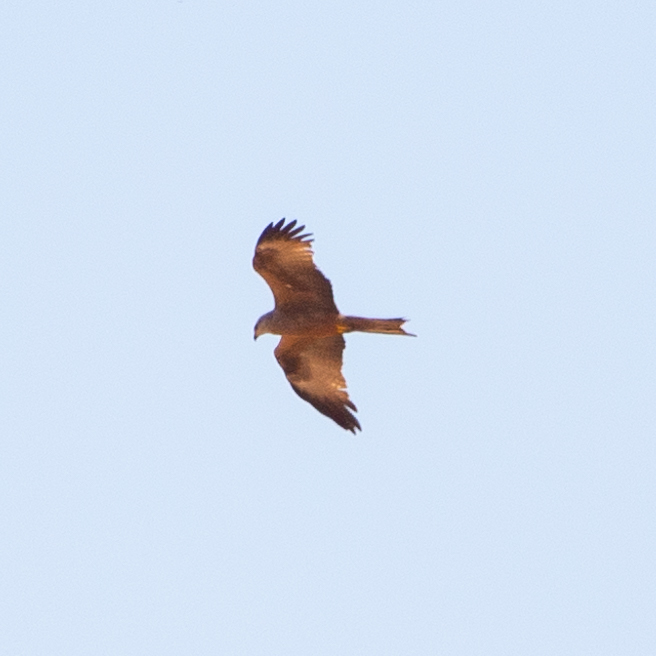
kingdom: Animalia
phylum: Chordata
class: Aves
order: Accipitriformes
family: Accipitridae
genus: Milvus
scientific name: Milvus migrans
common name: Black kite
